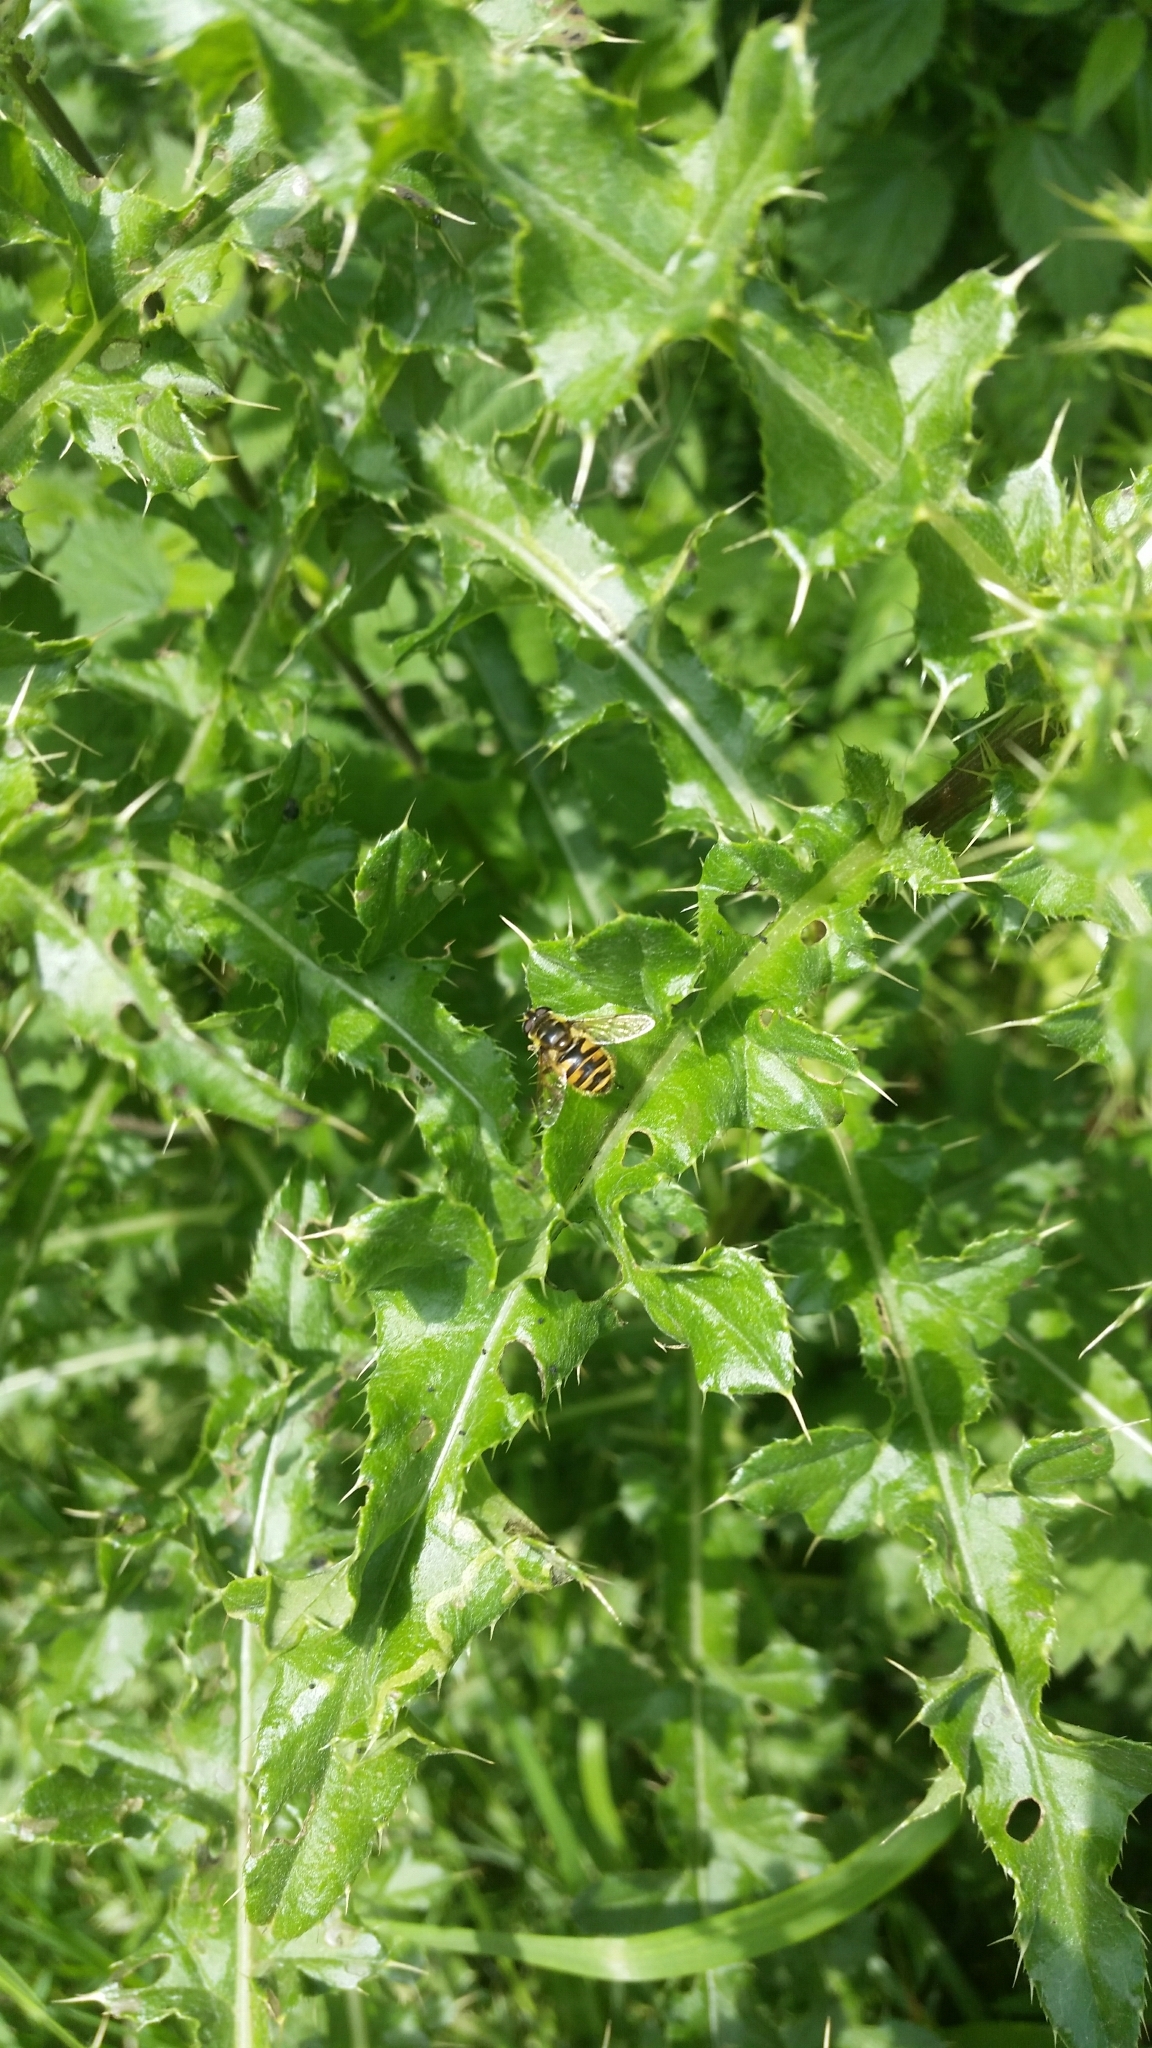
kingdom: Animalia
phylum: Arthropoda
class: Insecta
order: Diptera
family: Syrphidae
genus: Myathropa
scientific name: Myathropa florea
